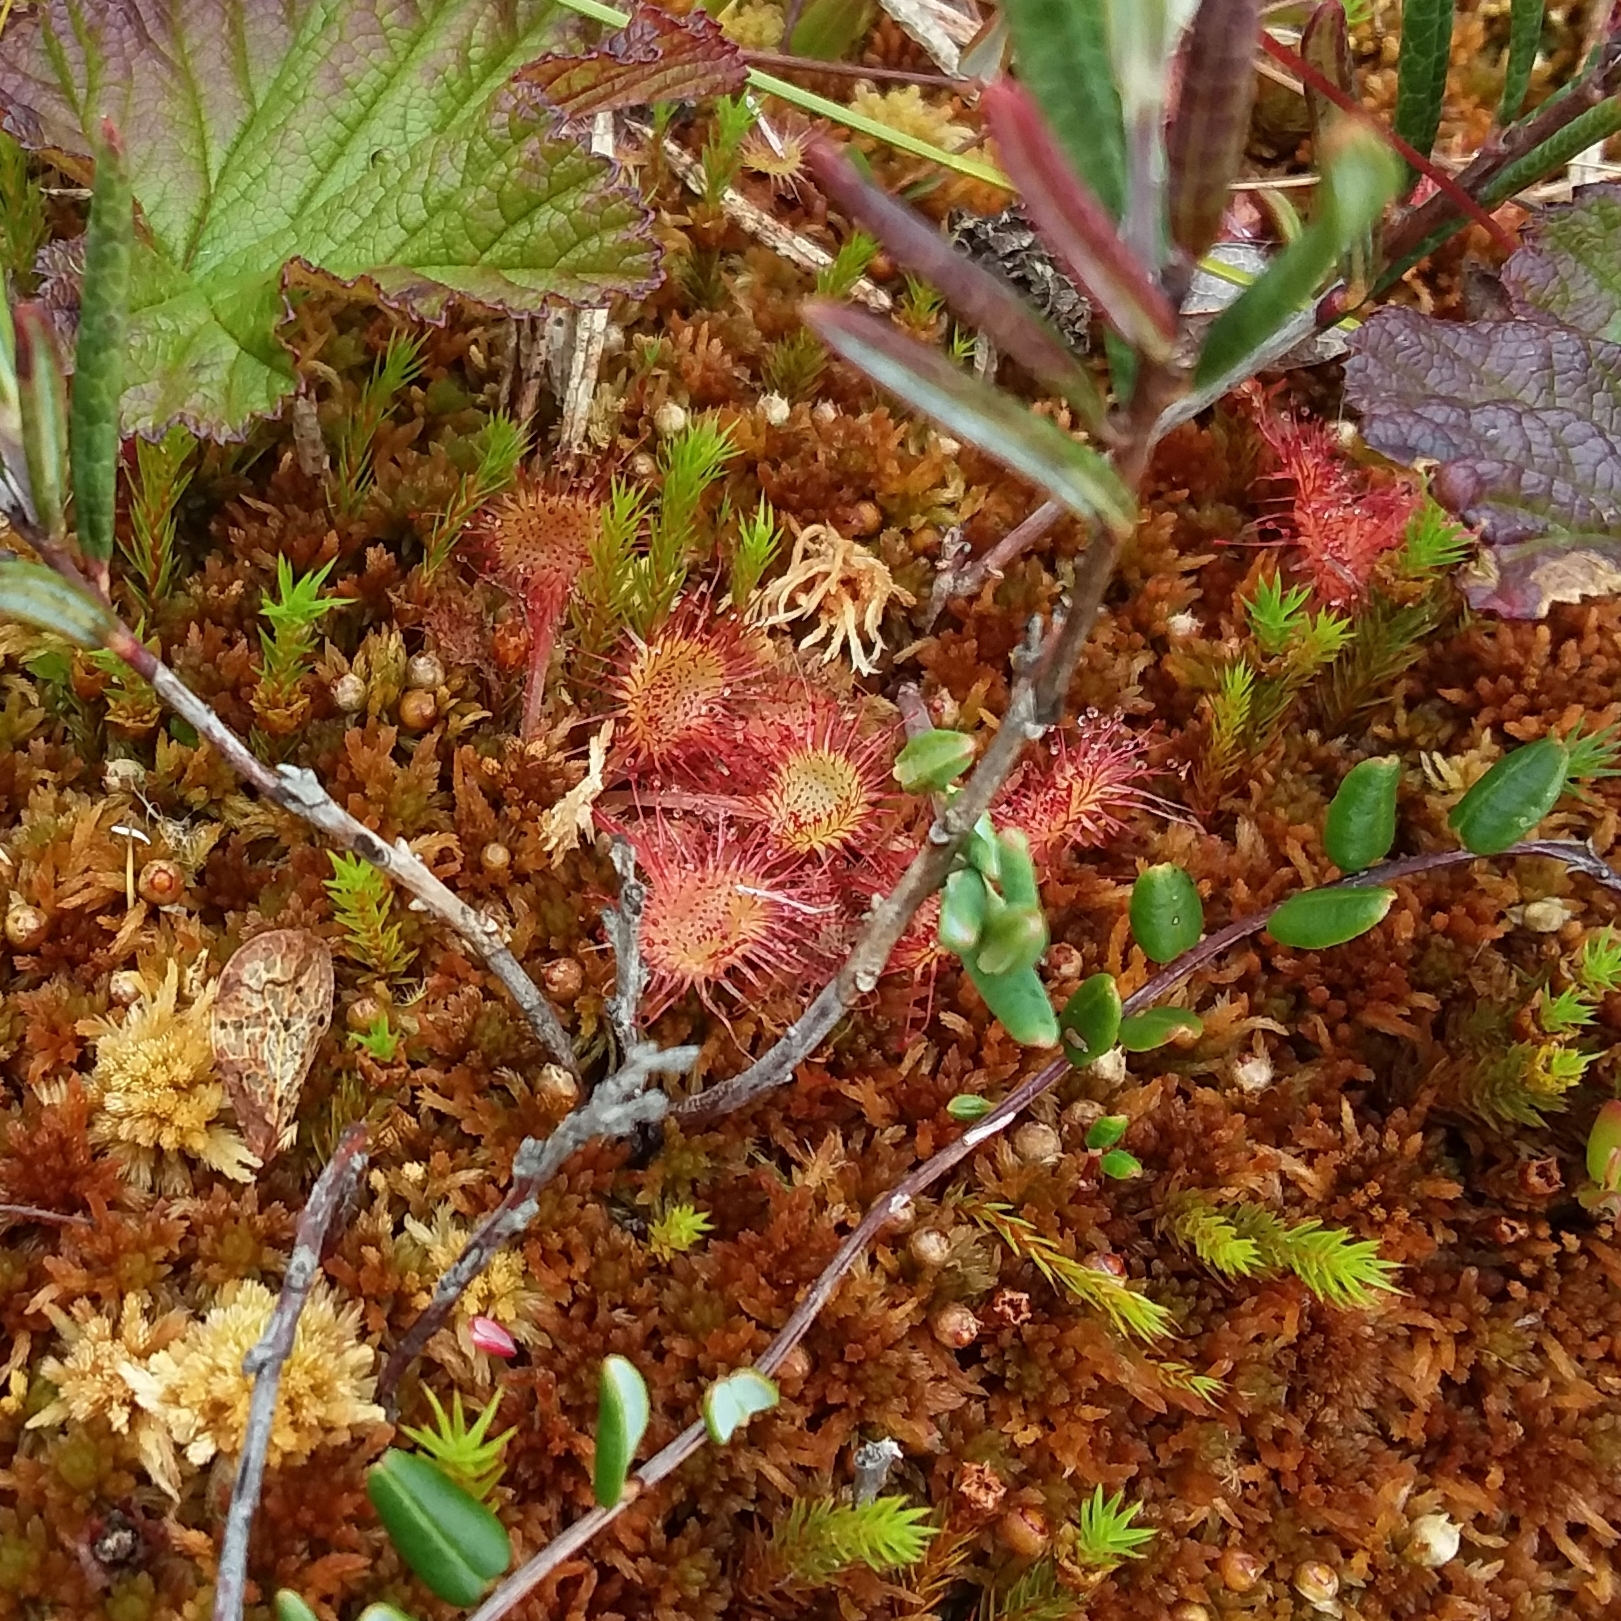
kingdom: Plantae
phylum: Tracheophyta
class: Magnoliopsida
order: Caryophyllales
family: Droseraceae
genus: Drosera
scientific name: Drosera rotundifolia
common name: Round-leaved sundew
